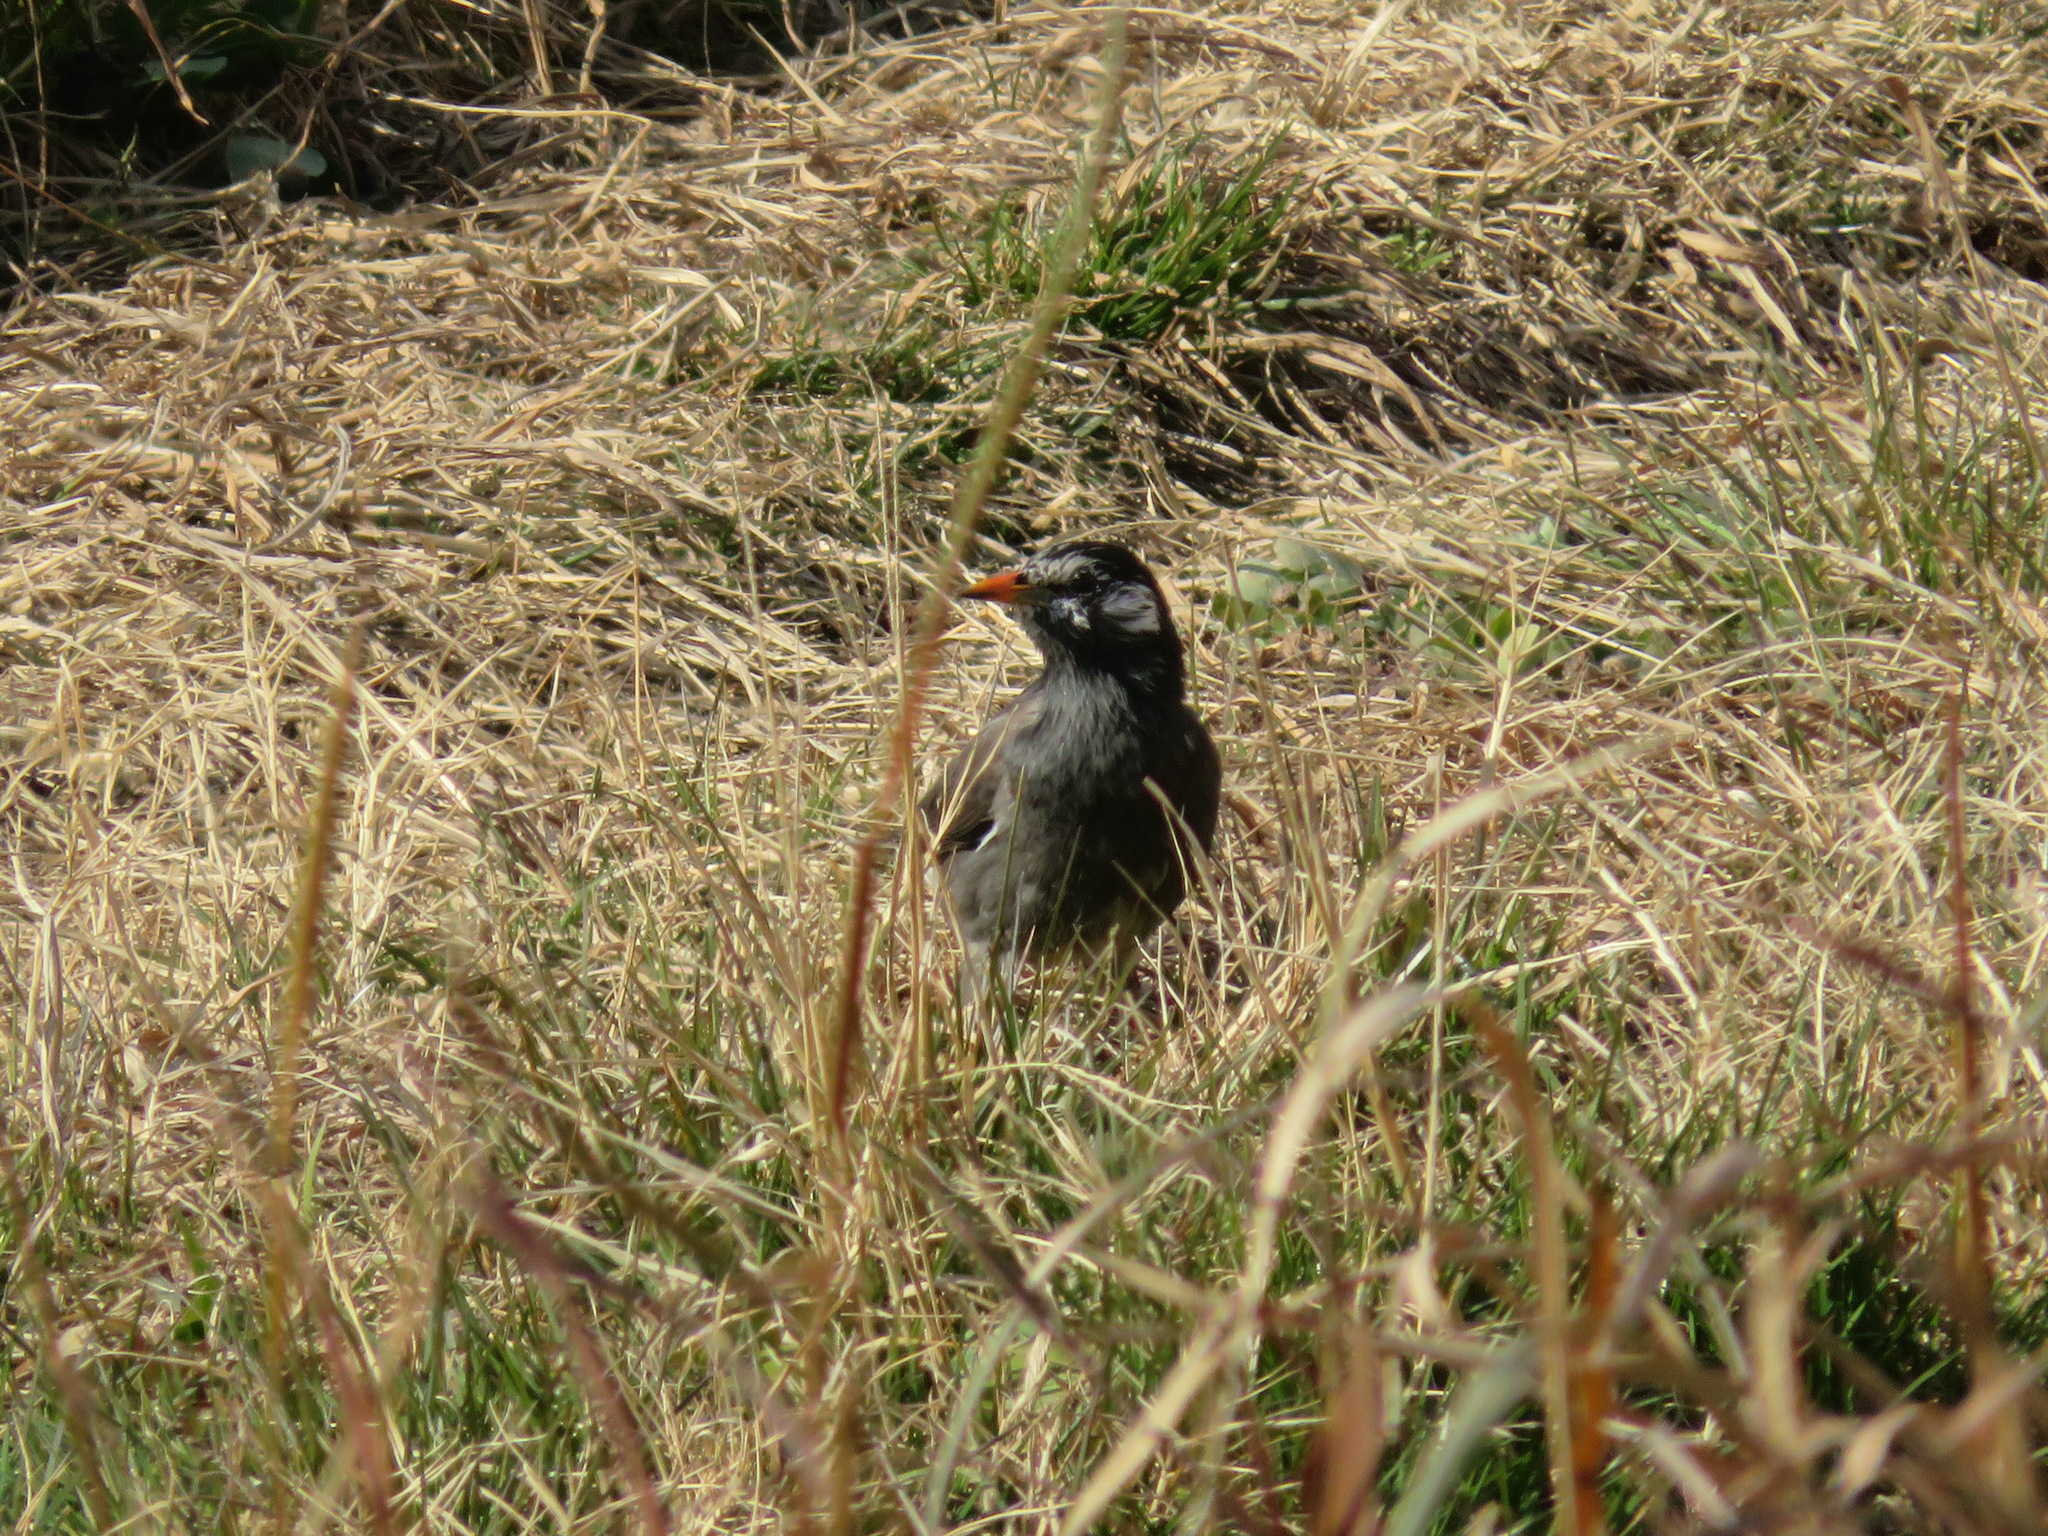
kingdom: Animalia
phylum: Chordata
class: Aves
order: Passeriformes
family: Sturnidae
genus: Spodiopsar
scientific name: Spodiopsar cineraceus
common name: White-cheeked starling
